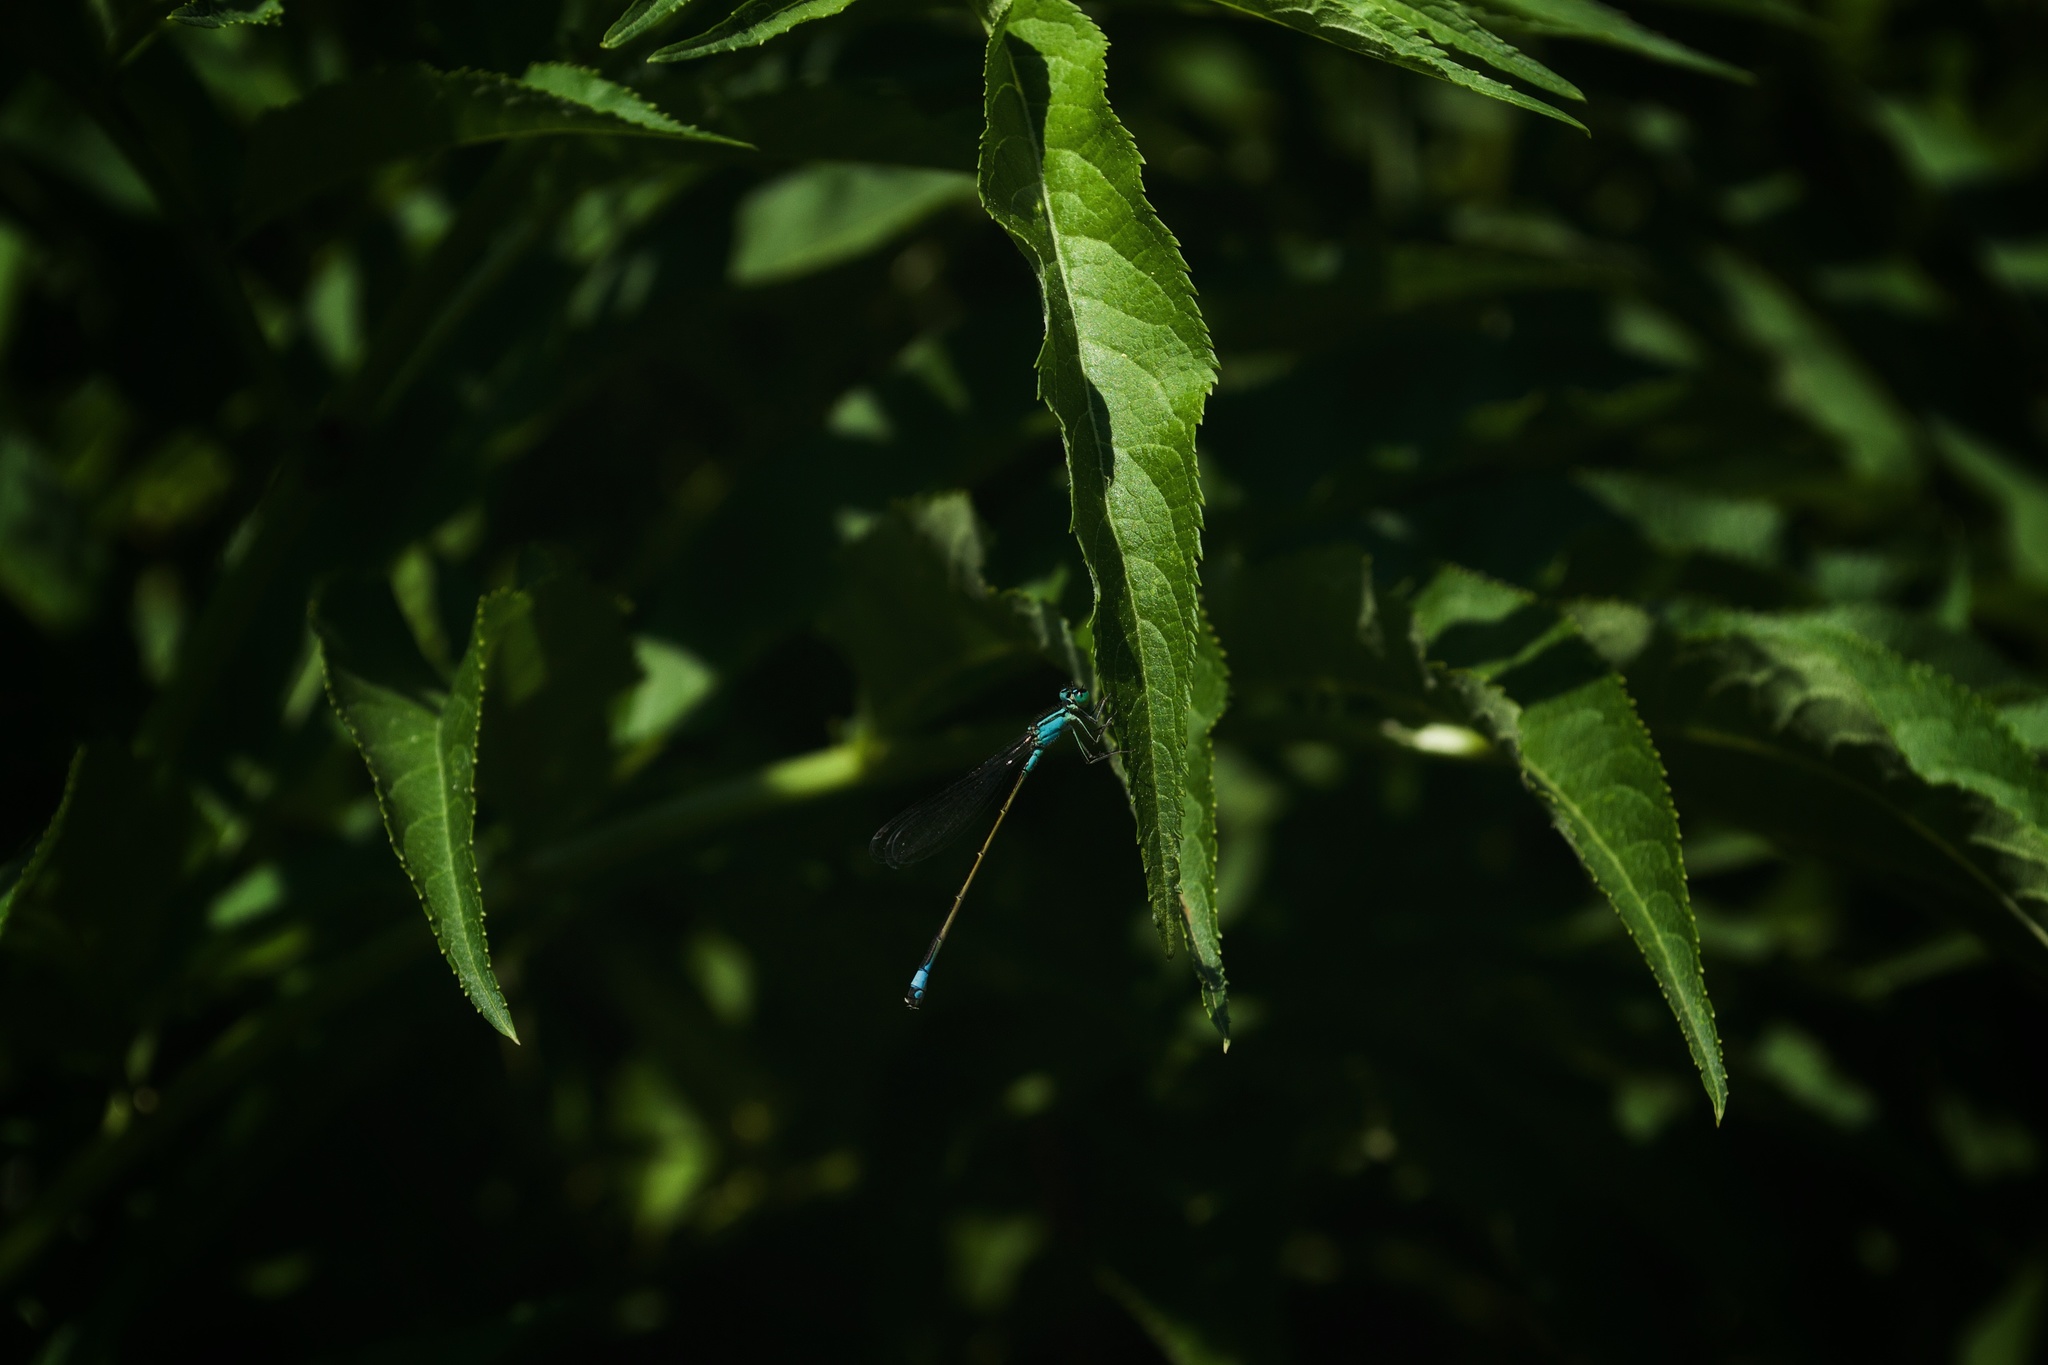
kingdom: Animalia
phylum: Arthropoda
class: Insecta
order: Odonata
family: Coenagrionidae
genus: Ischnura
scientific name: Ischnura elegans
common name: Blue-tailed damselfly
